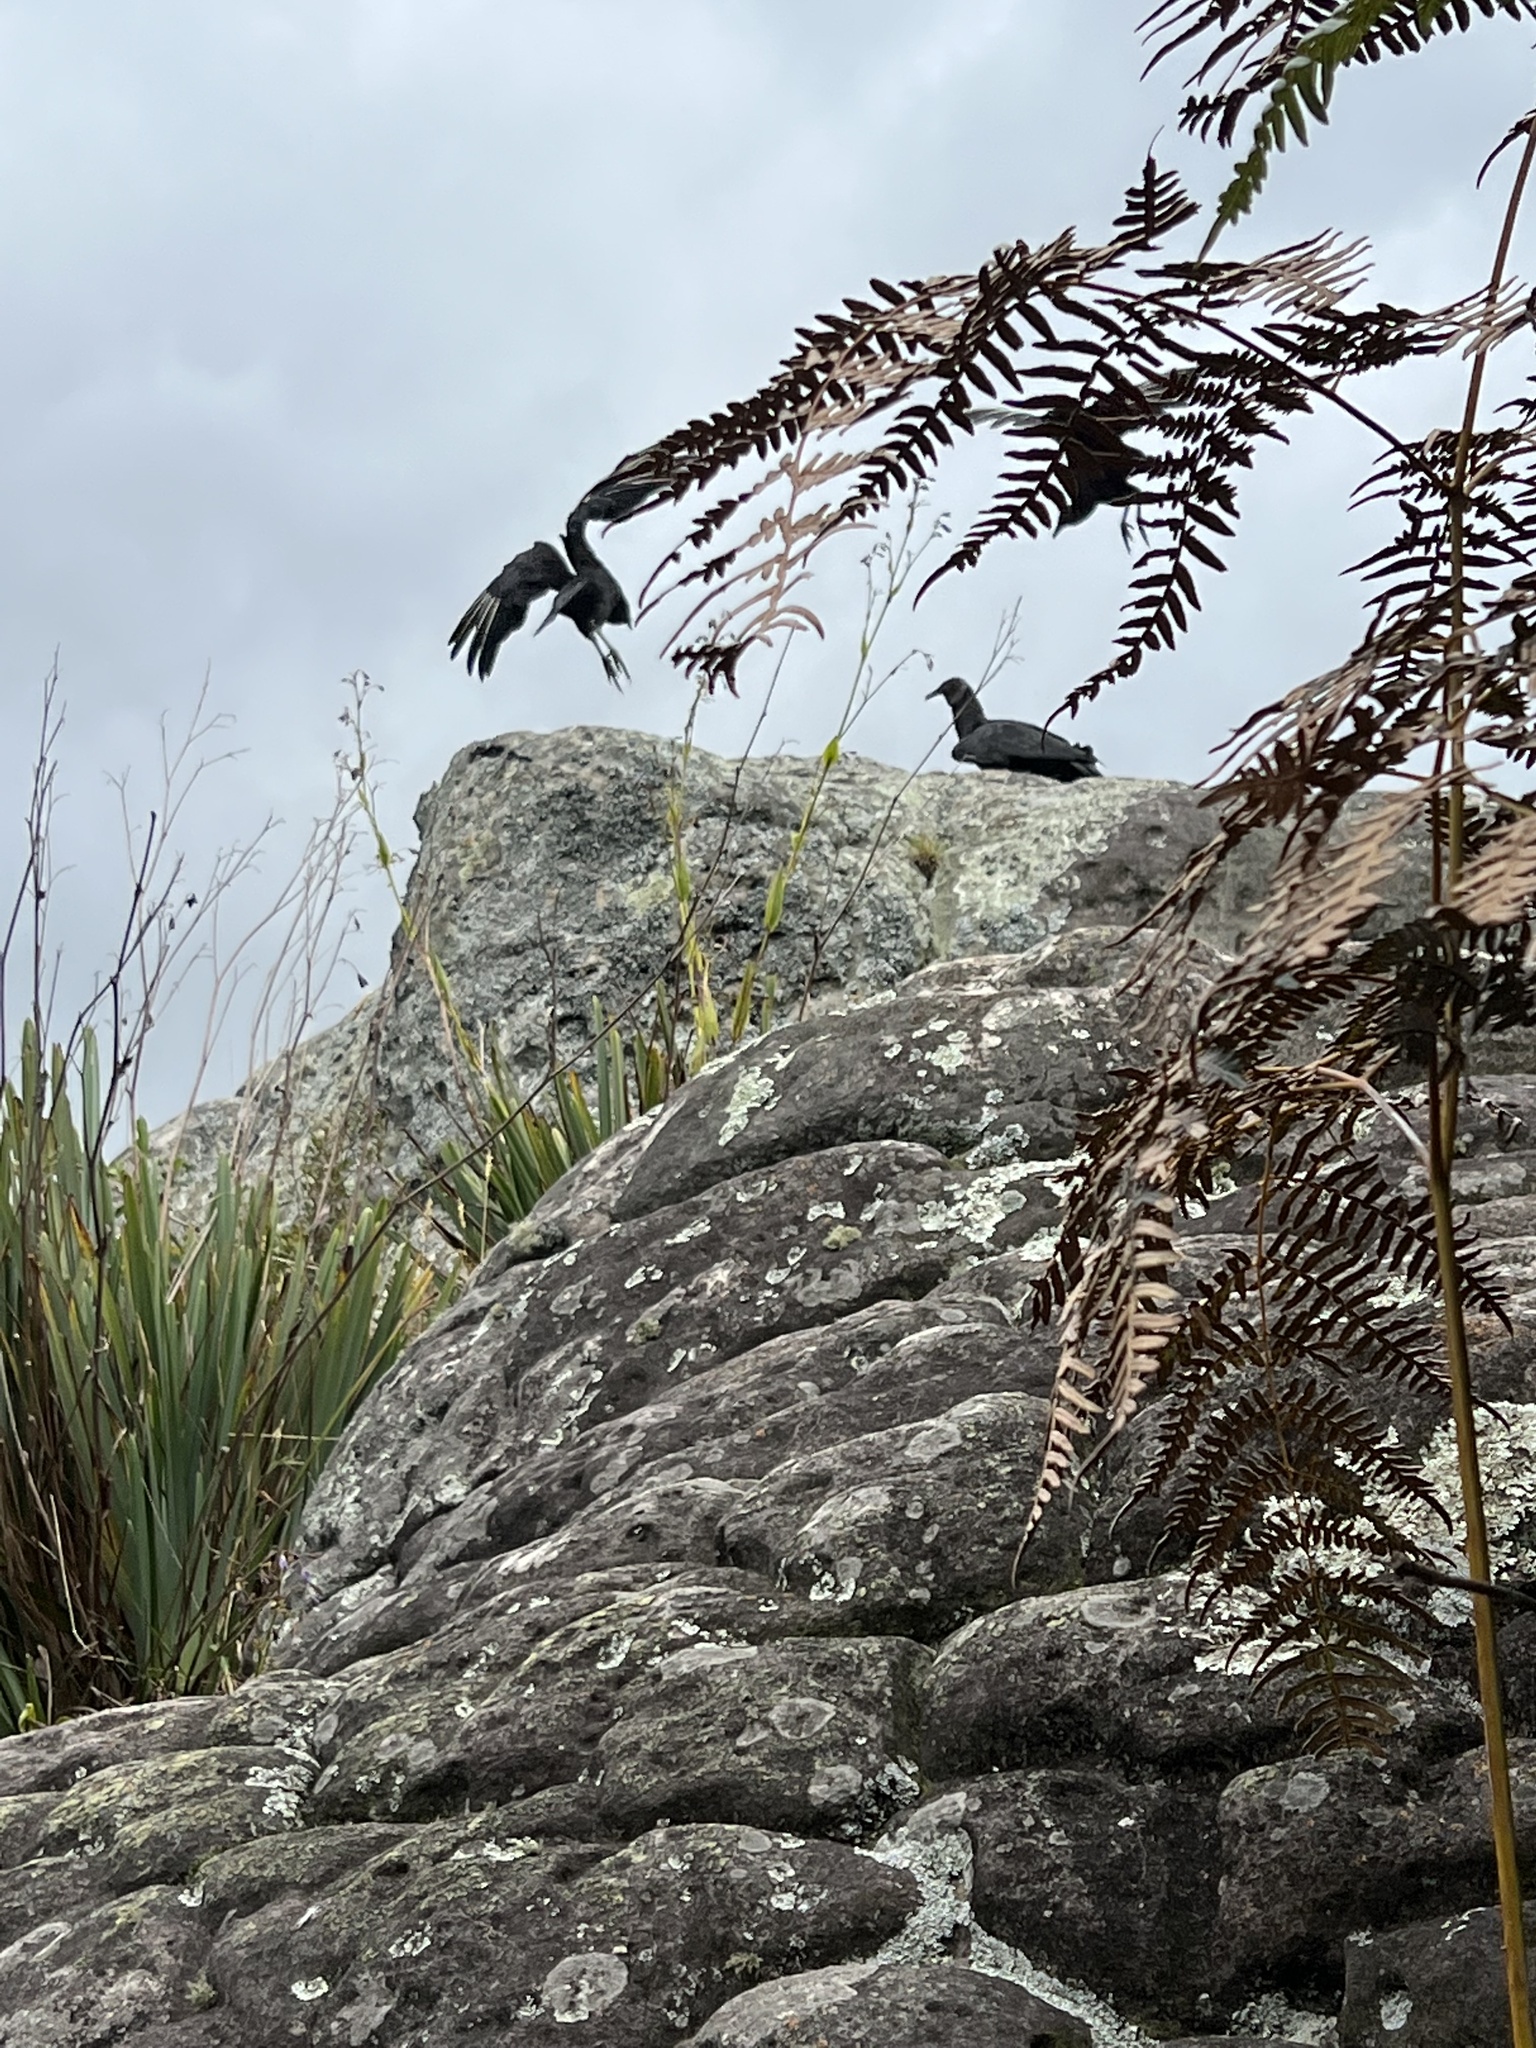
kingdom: Animalia
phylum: Chordata
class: Aves
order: Accipitriformes
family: Cathartidae
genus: Coragyps
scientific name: Coragyps atratus
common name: Black vulture
